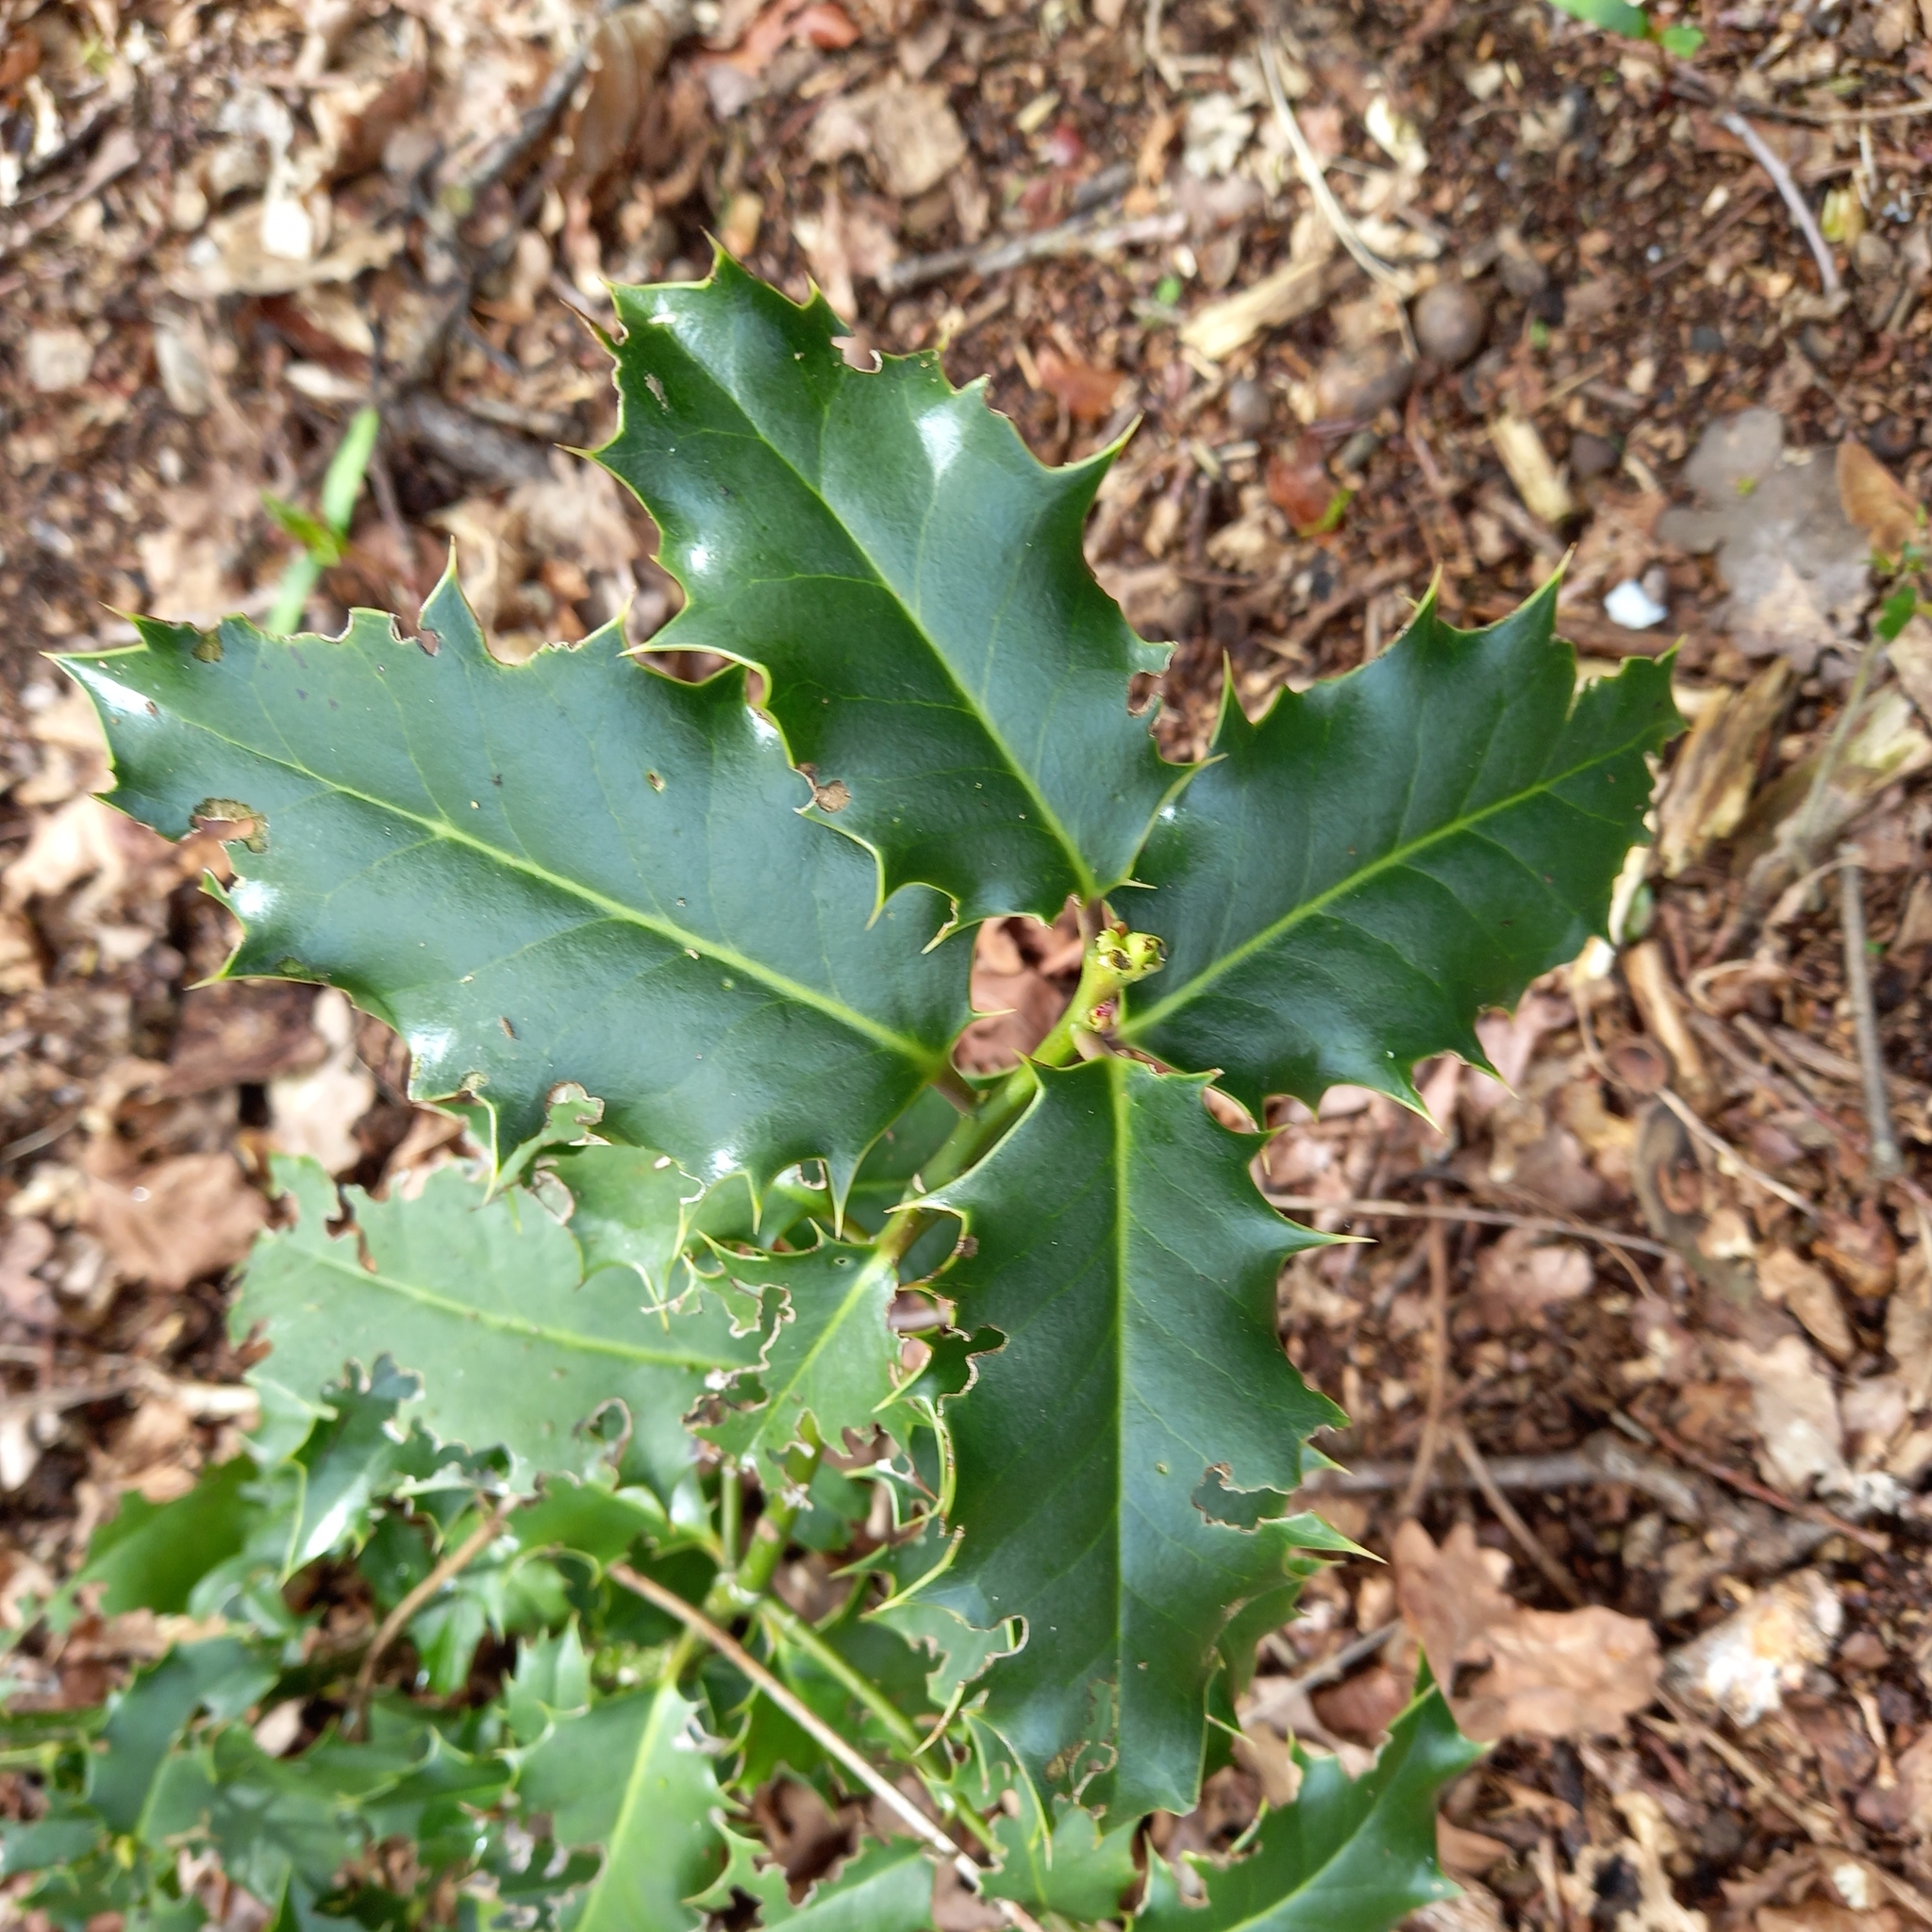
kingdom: Plantae
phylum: Tracheophyta
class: Magnoliopsida
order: Aquifoliales
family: Aquifoliaceae
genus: Ilex
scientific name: Ilex aquifolium
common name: English holly
